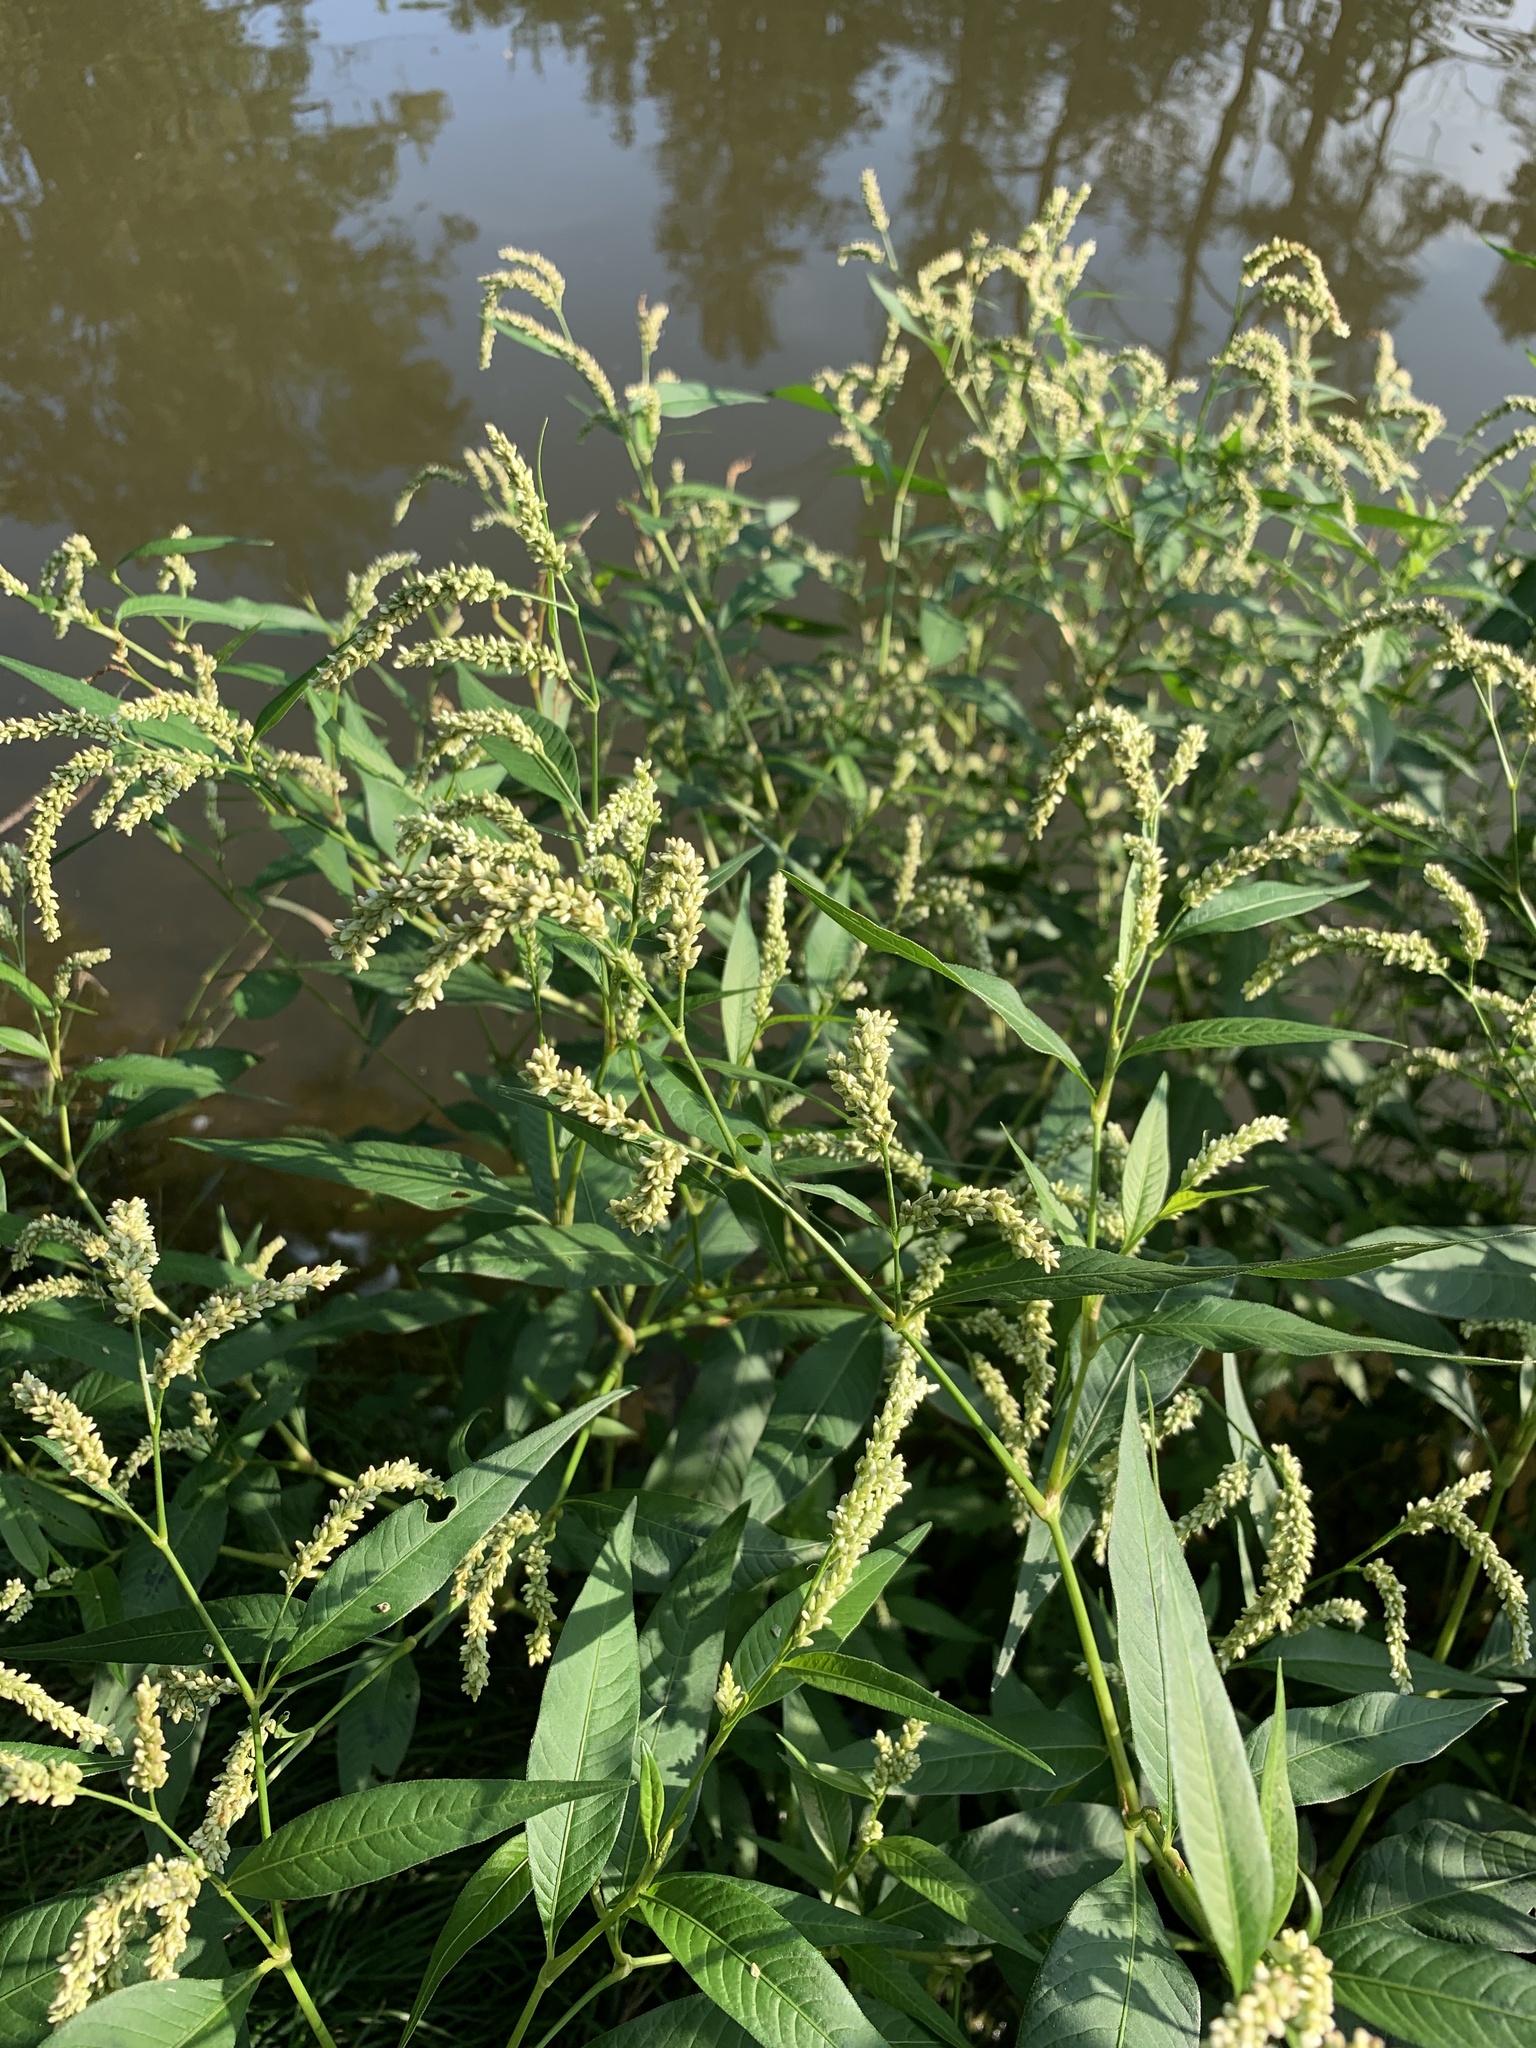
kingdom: Plantae
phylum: Tracheophyta
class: Magnoliopsida
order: Caryophyllales
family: Polygonaceae
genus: Persicaria
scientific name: Persicaria lapathifolia
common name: Curlytop knotweed
